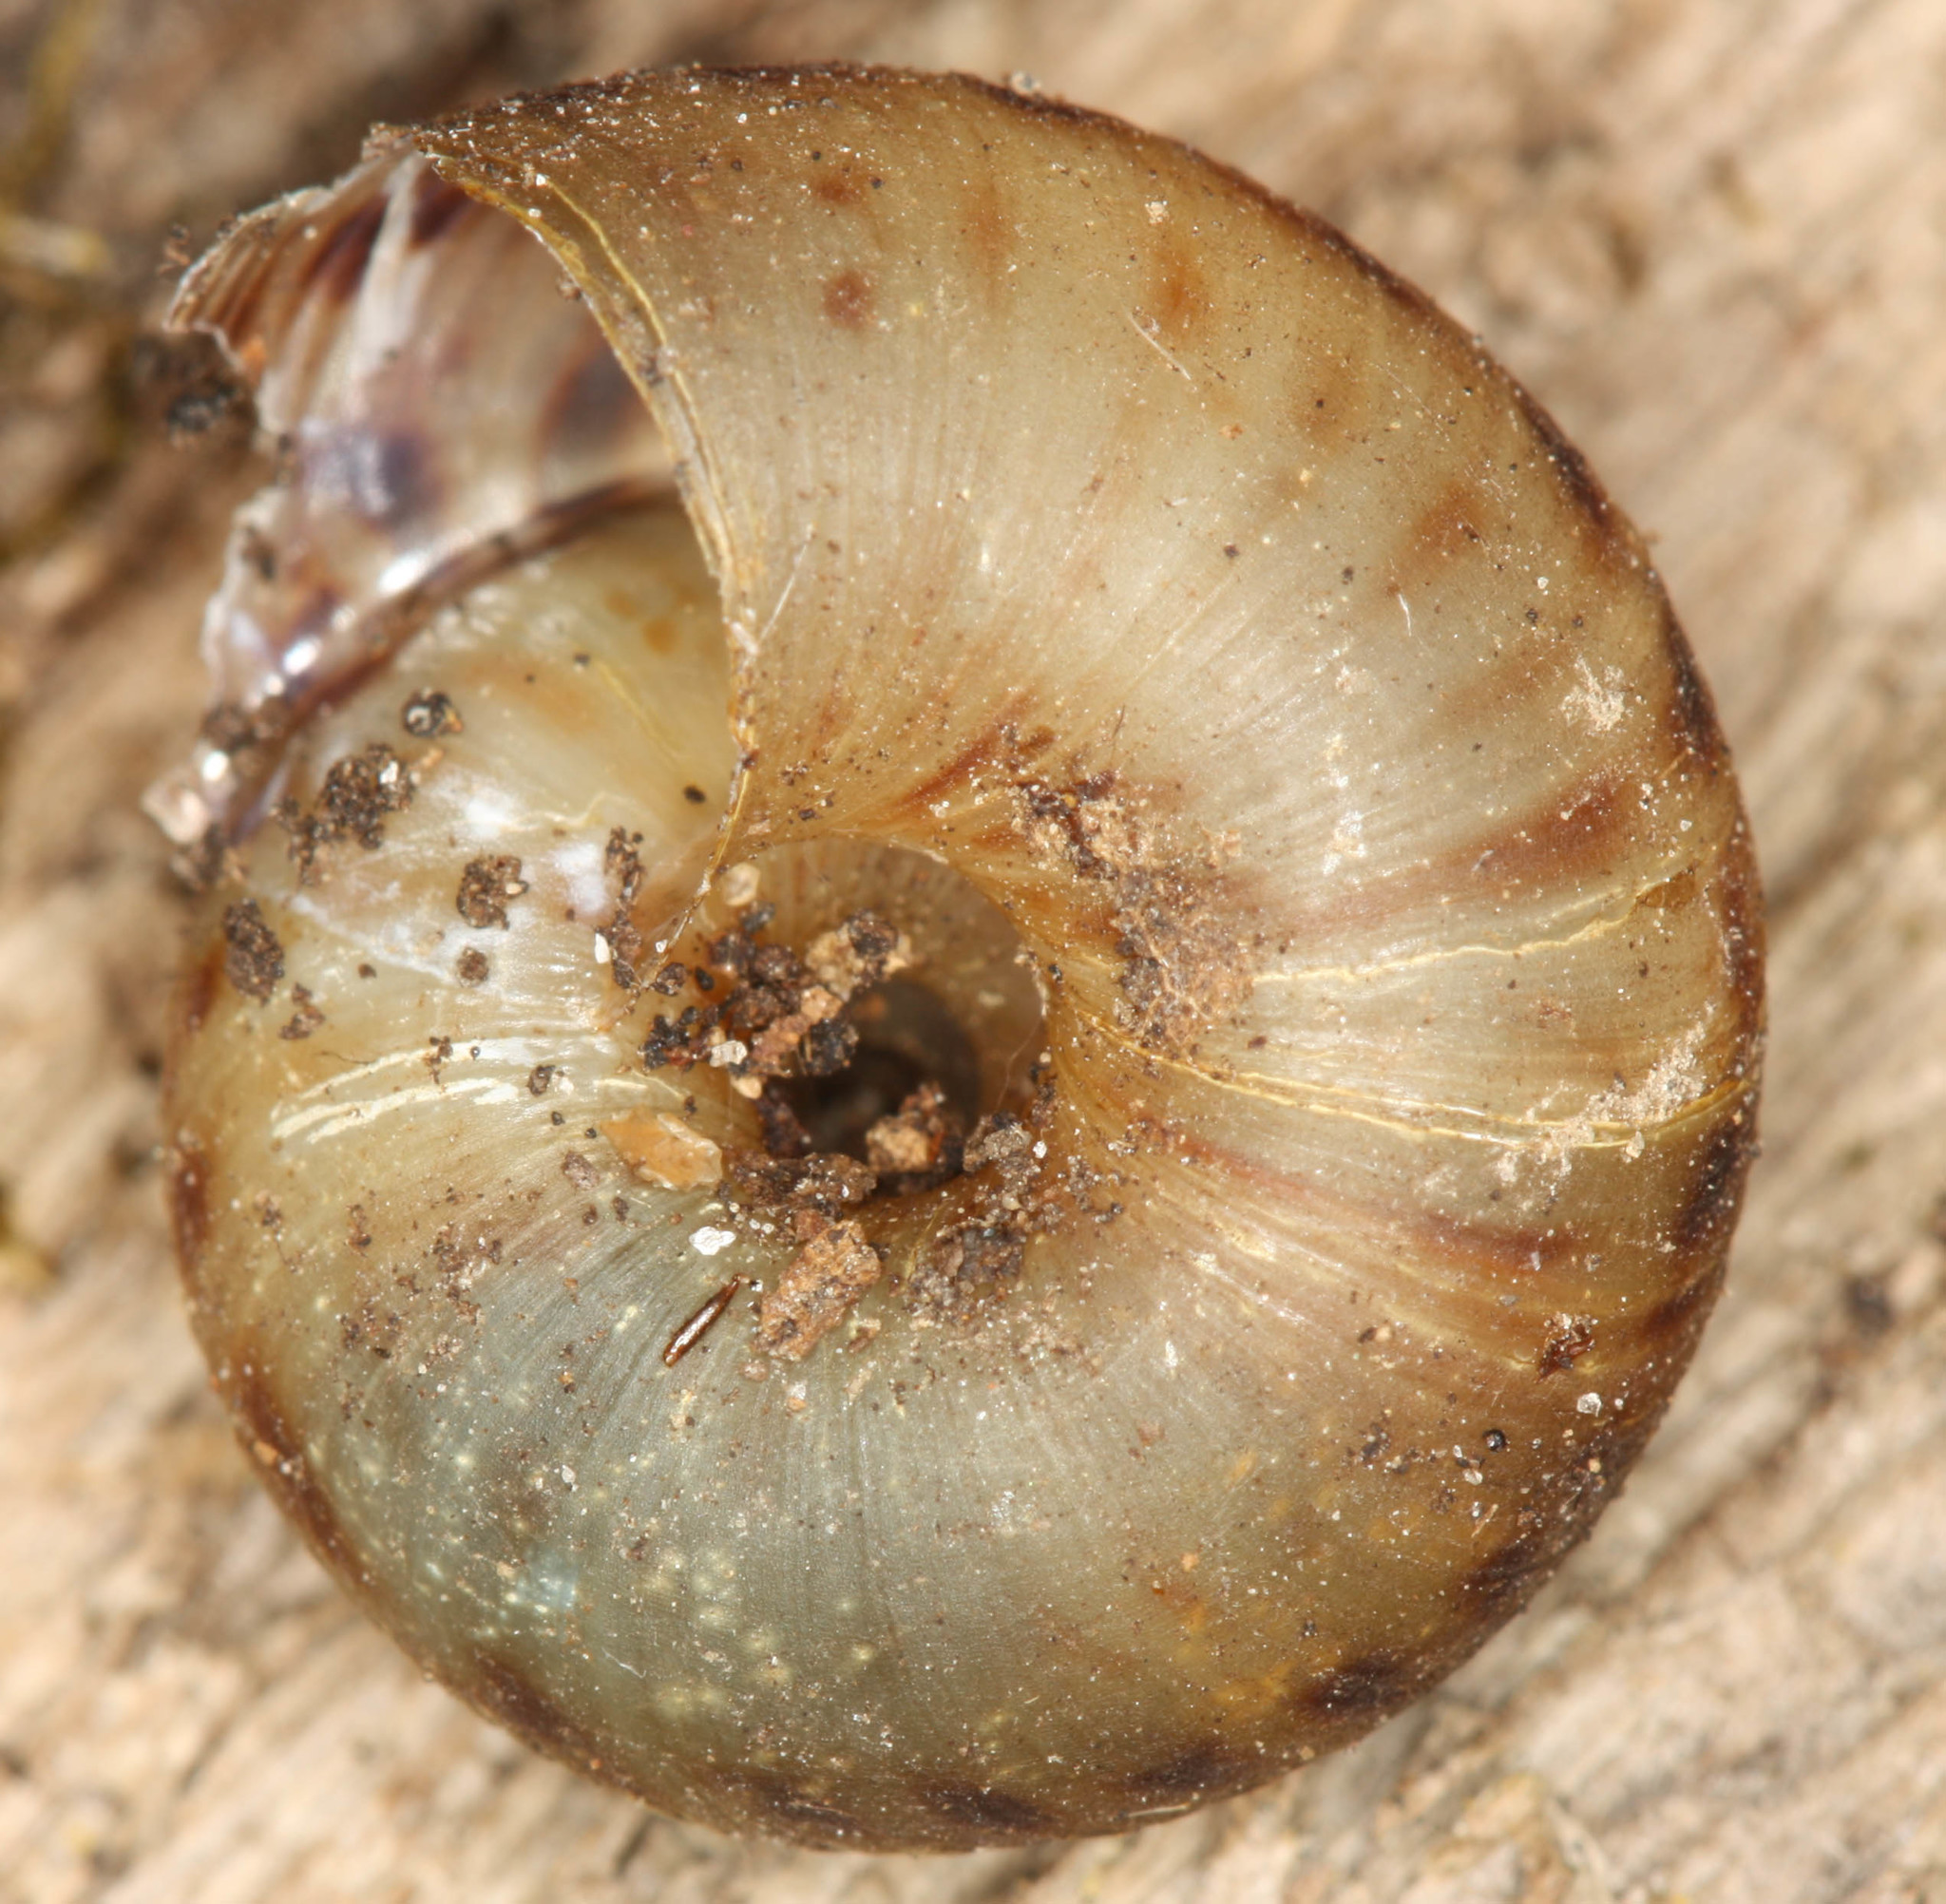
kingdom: Animalia
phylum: Mollusca
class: Gastropoda
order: Stylommatophora
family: Discidae
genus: Anguispira
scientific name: Anguispira alternata
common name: Flamed tigersnail
